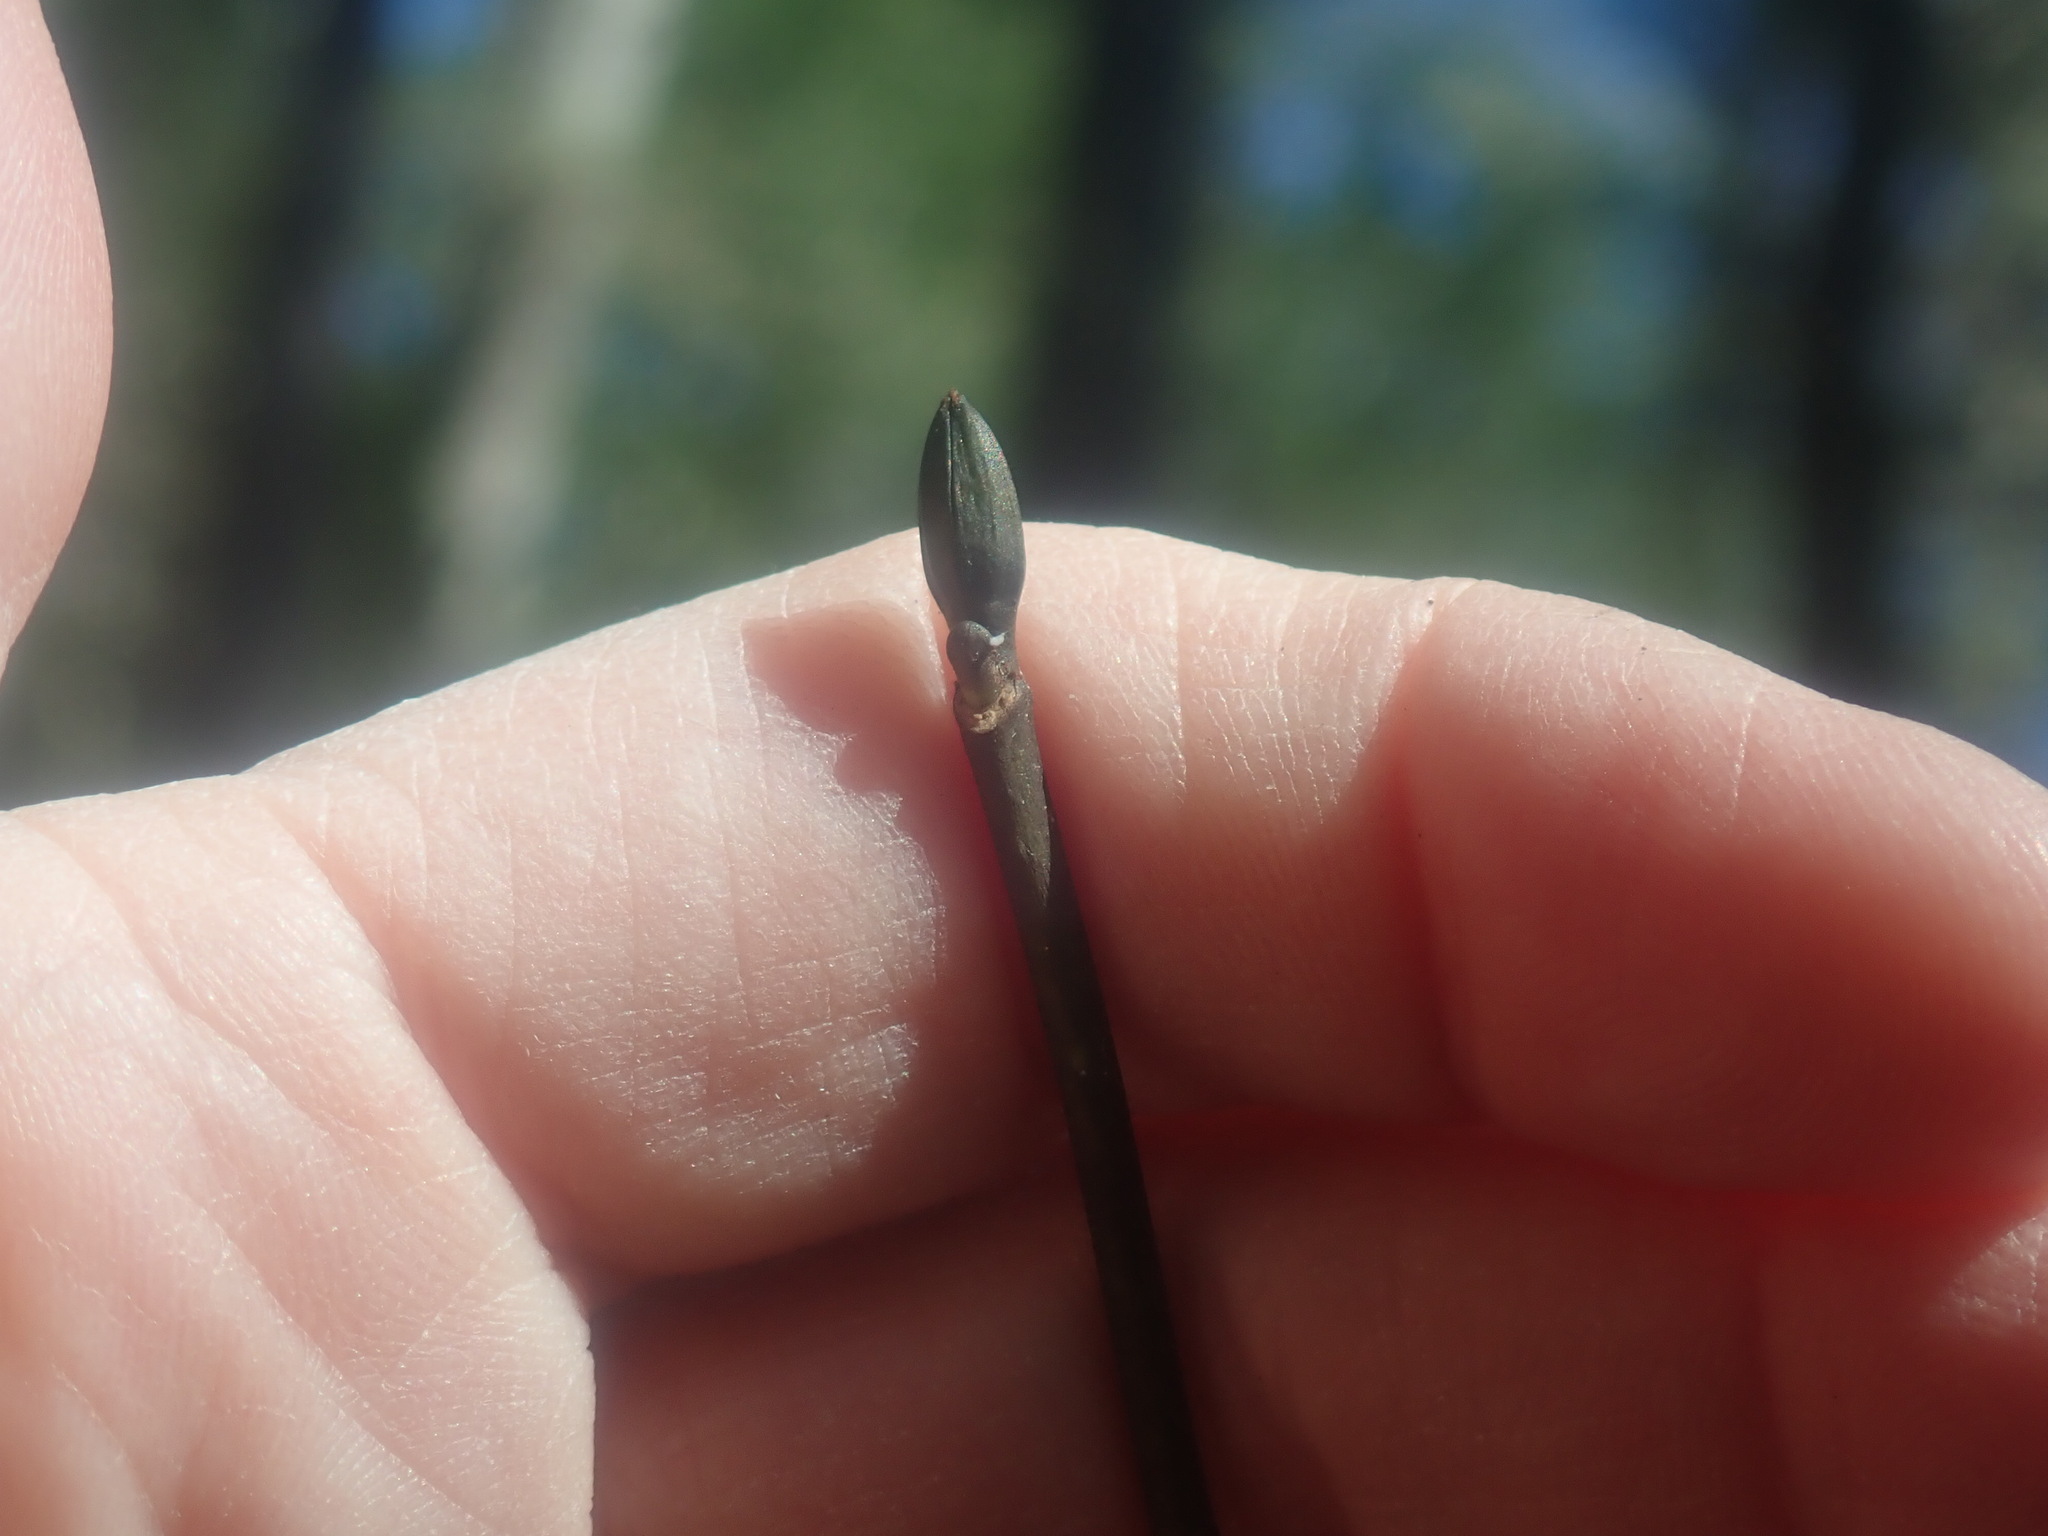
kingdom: Plantae
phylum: Tracheophyta
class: Magnoliopsida
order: Sapindales
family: Sapindaceae
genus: Acer
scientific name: Acer pensylvanicum
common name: Moosewood
